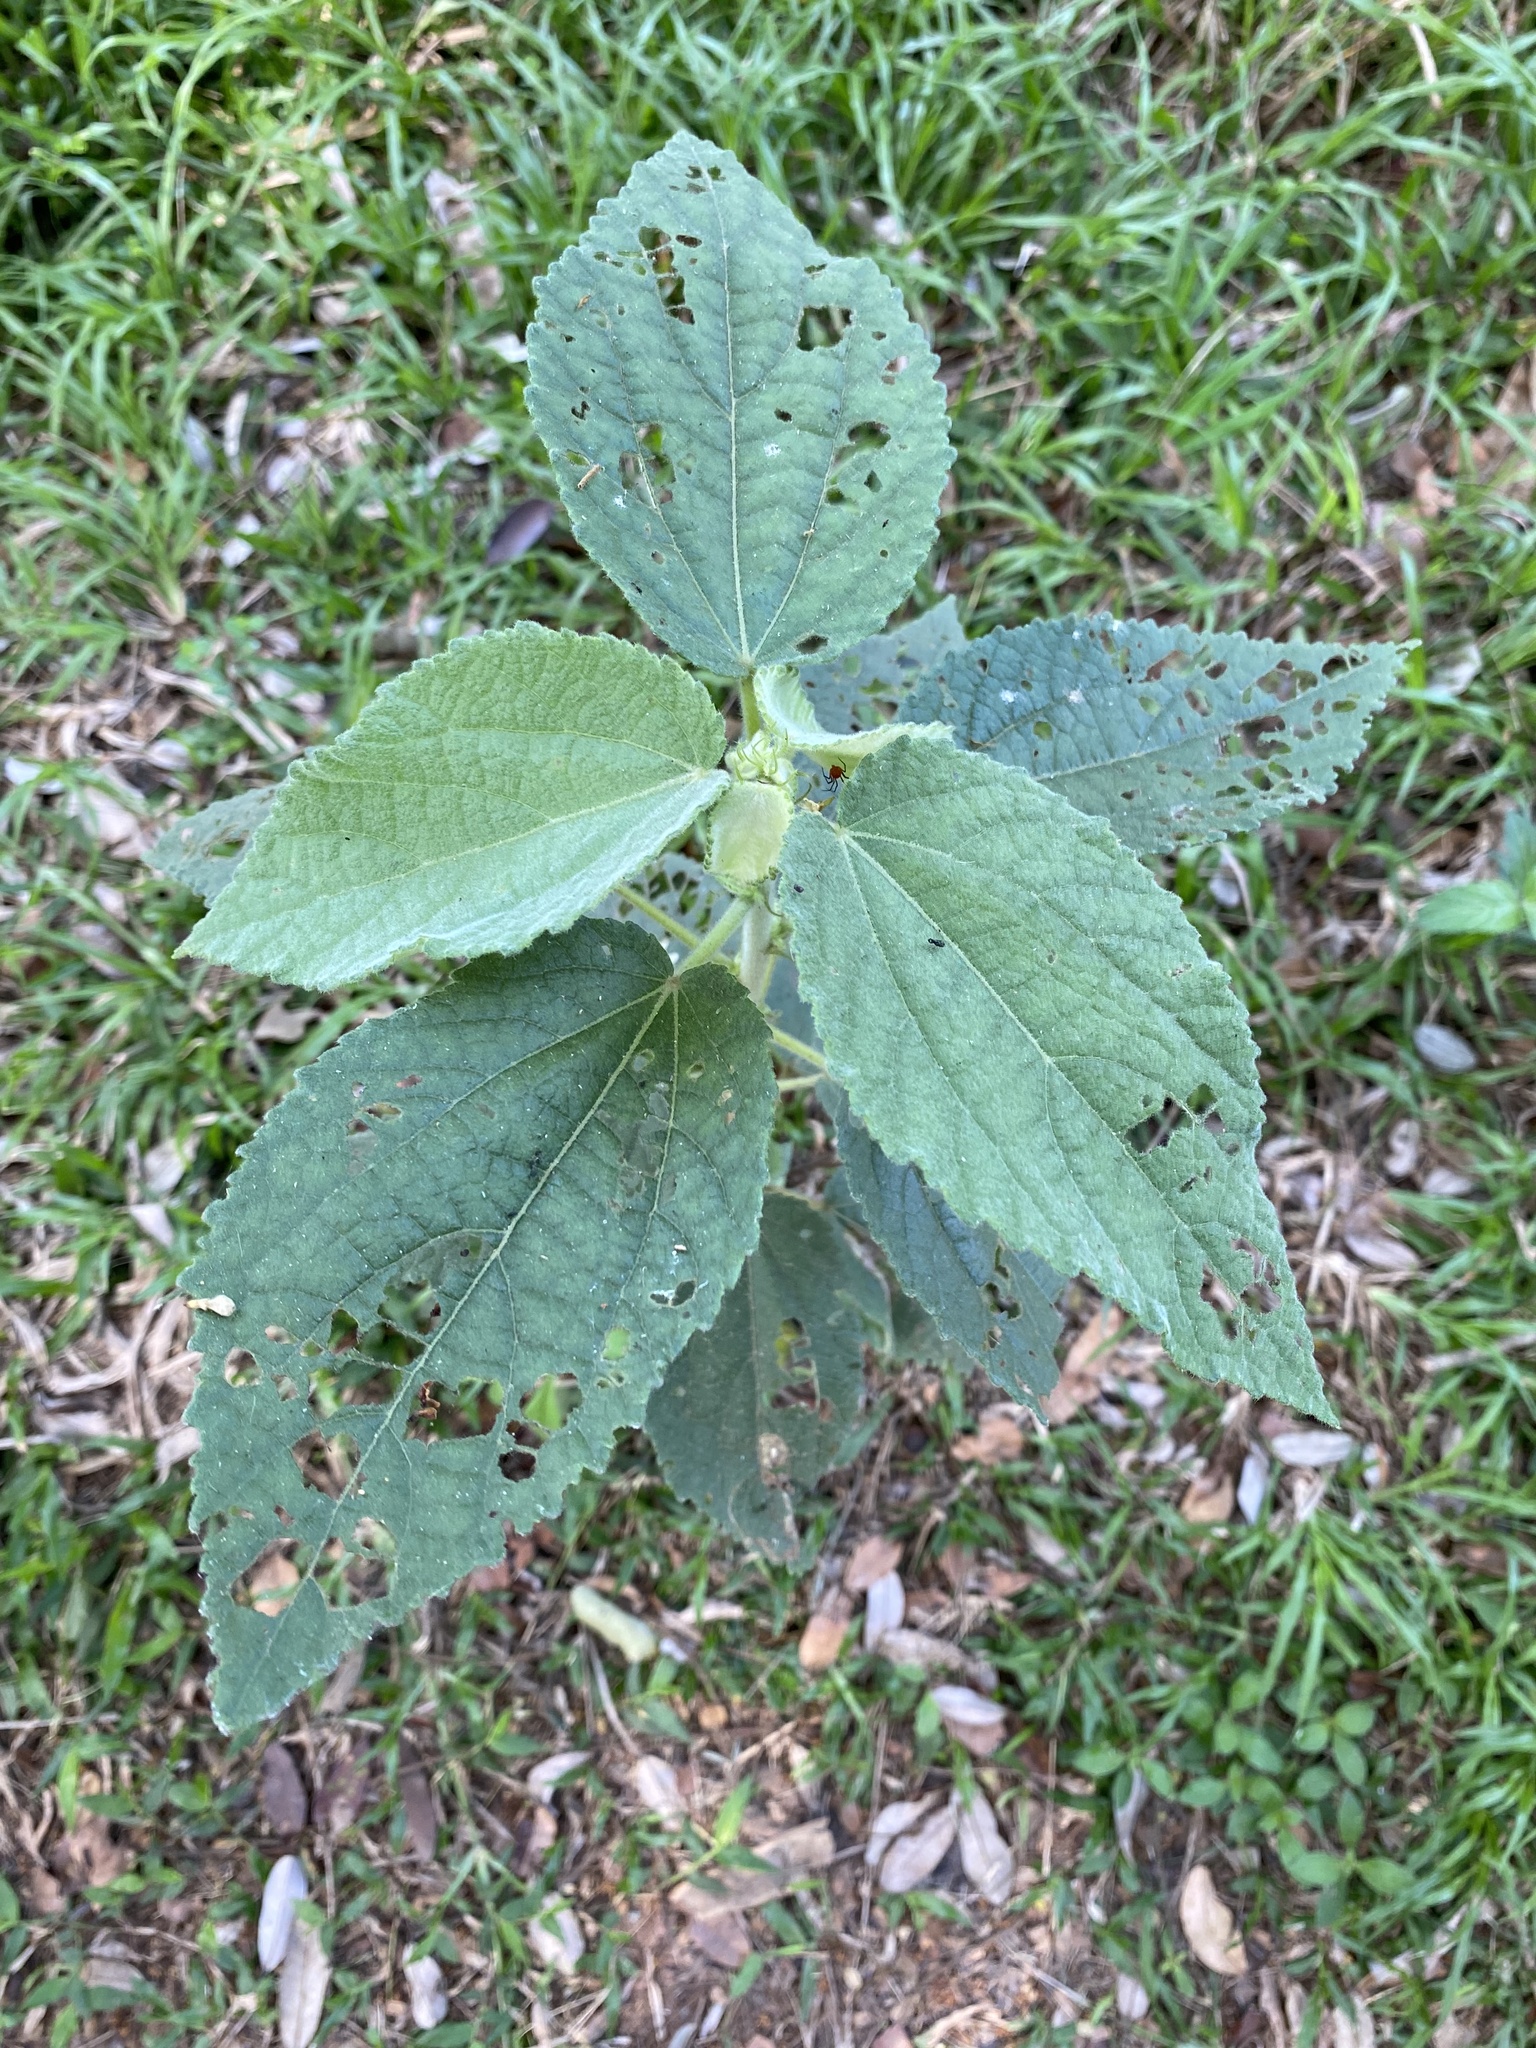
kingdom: Plantae
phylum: Tracheophyta
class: Magnoliopsida
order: Malvales
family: Malvaceae
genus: Triumfetta
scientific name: Triumfetta pilosa
